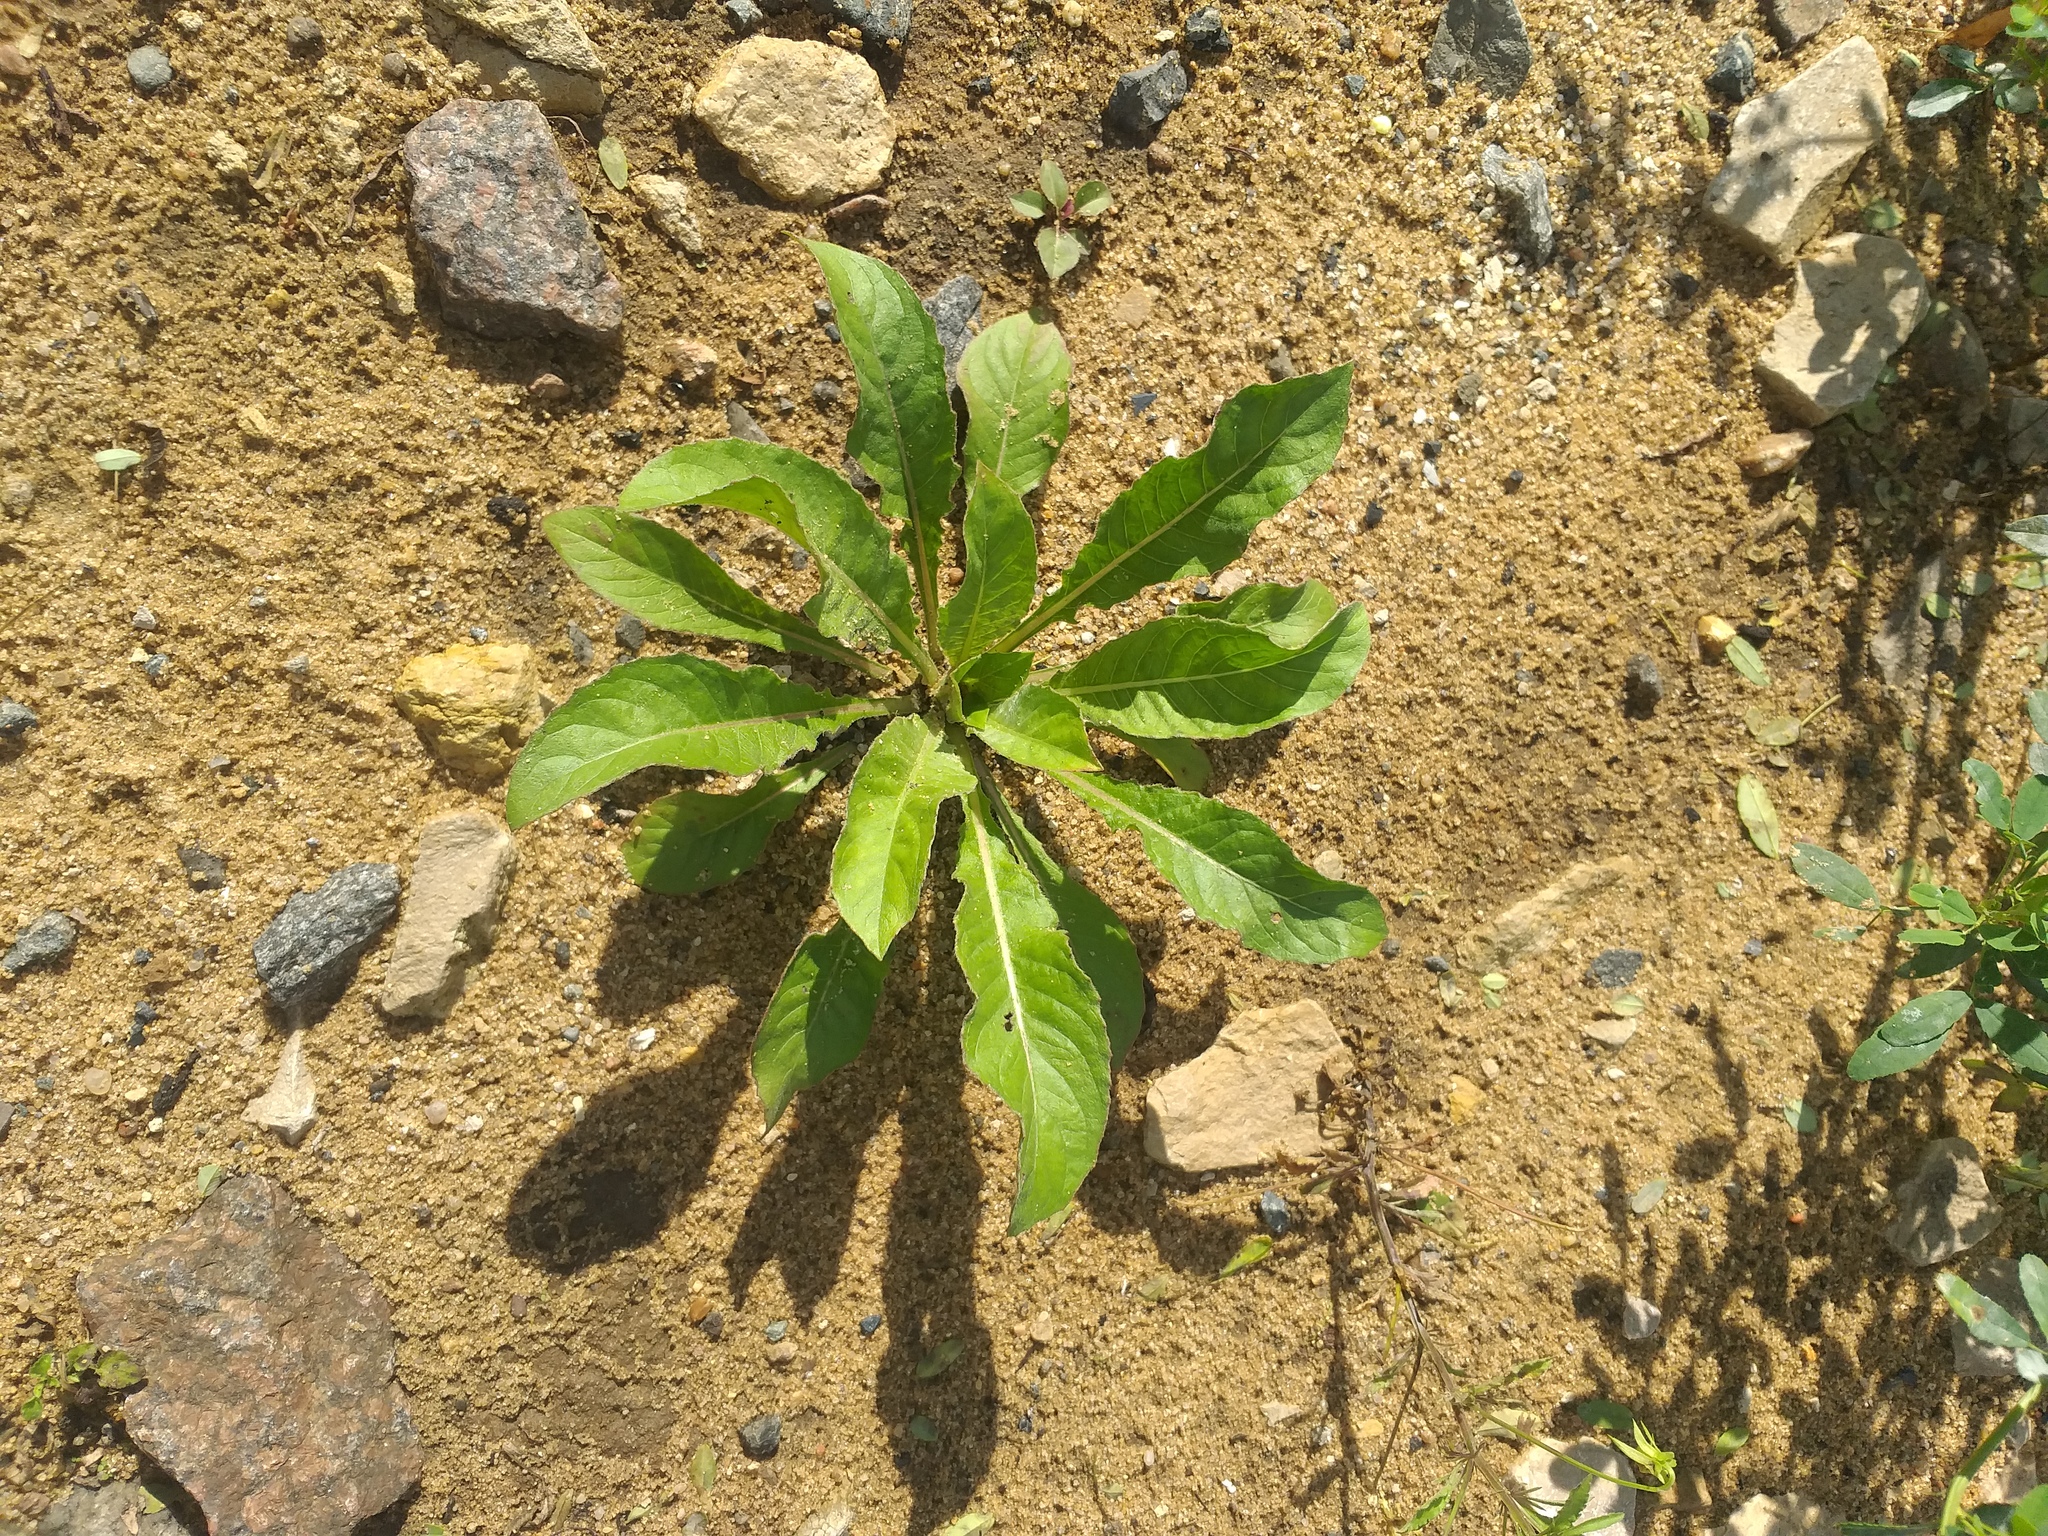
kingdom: Plantae
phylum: Tracheophyta
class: Magnoliopsida
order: Myrtales
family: Onagraceae
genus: Oenothera
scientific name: Oenothera
